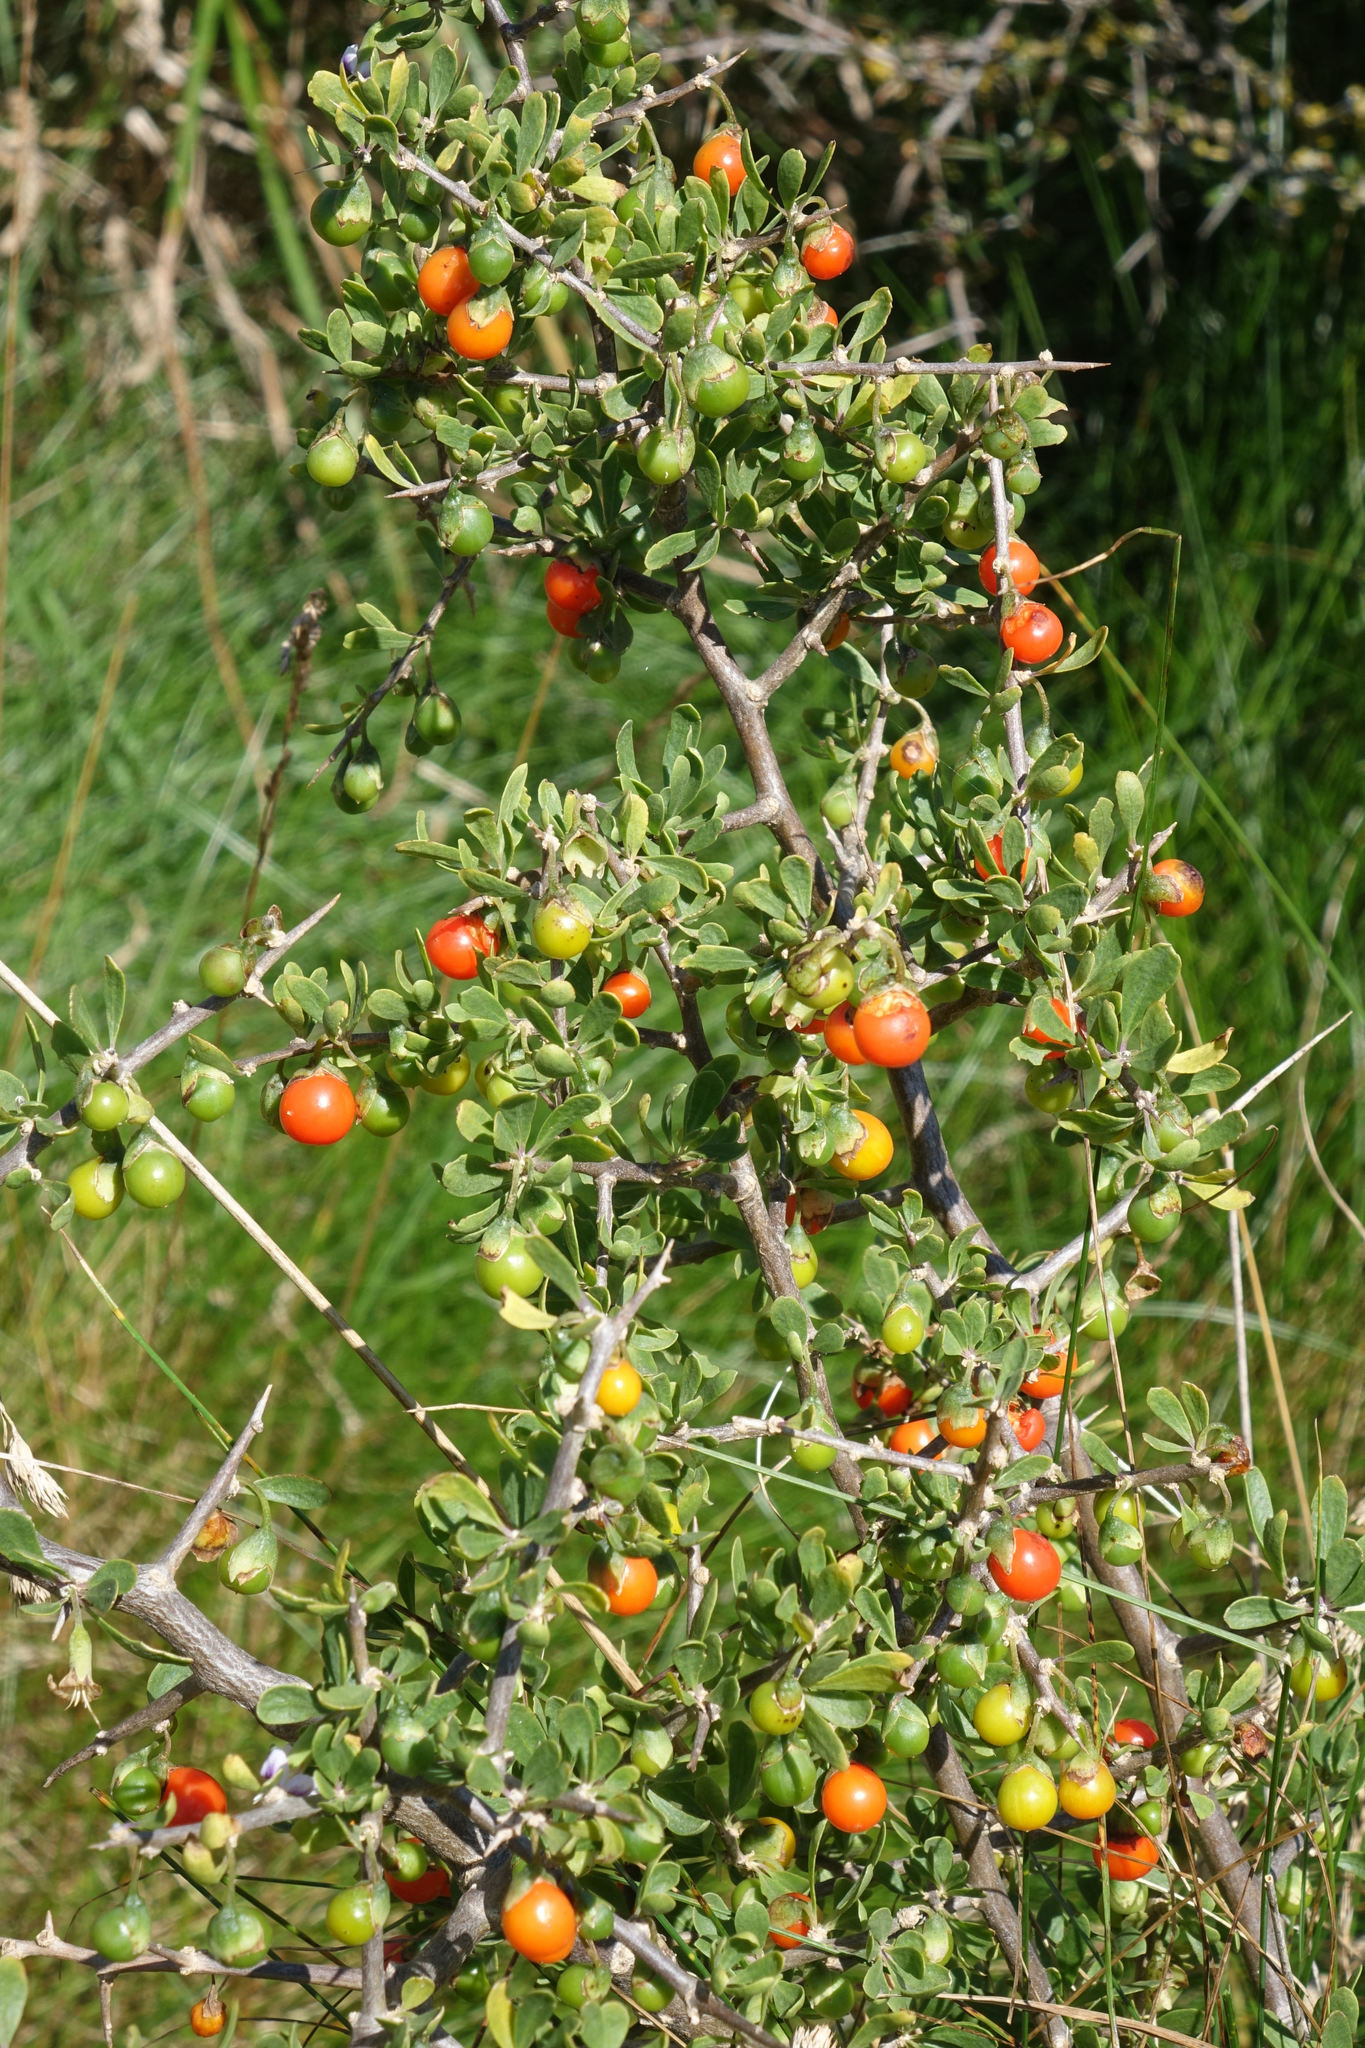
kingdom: Plantae
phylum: Tracheophyta
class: Magnoliopsida
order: Solanales
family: Solanaceae
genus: Lycium
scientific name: Lycium ferocissimum
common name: African boxthorn
